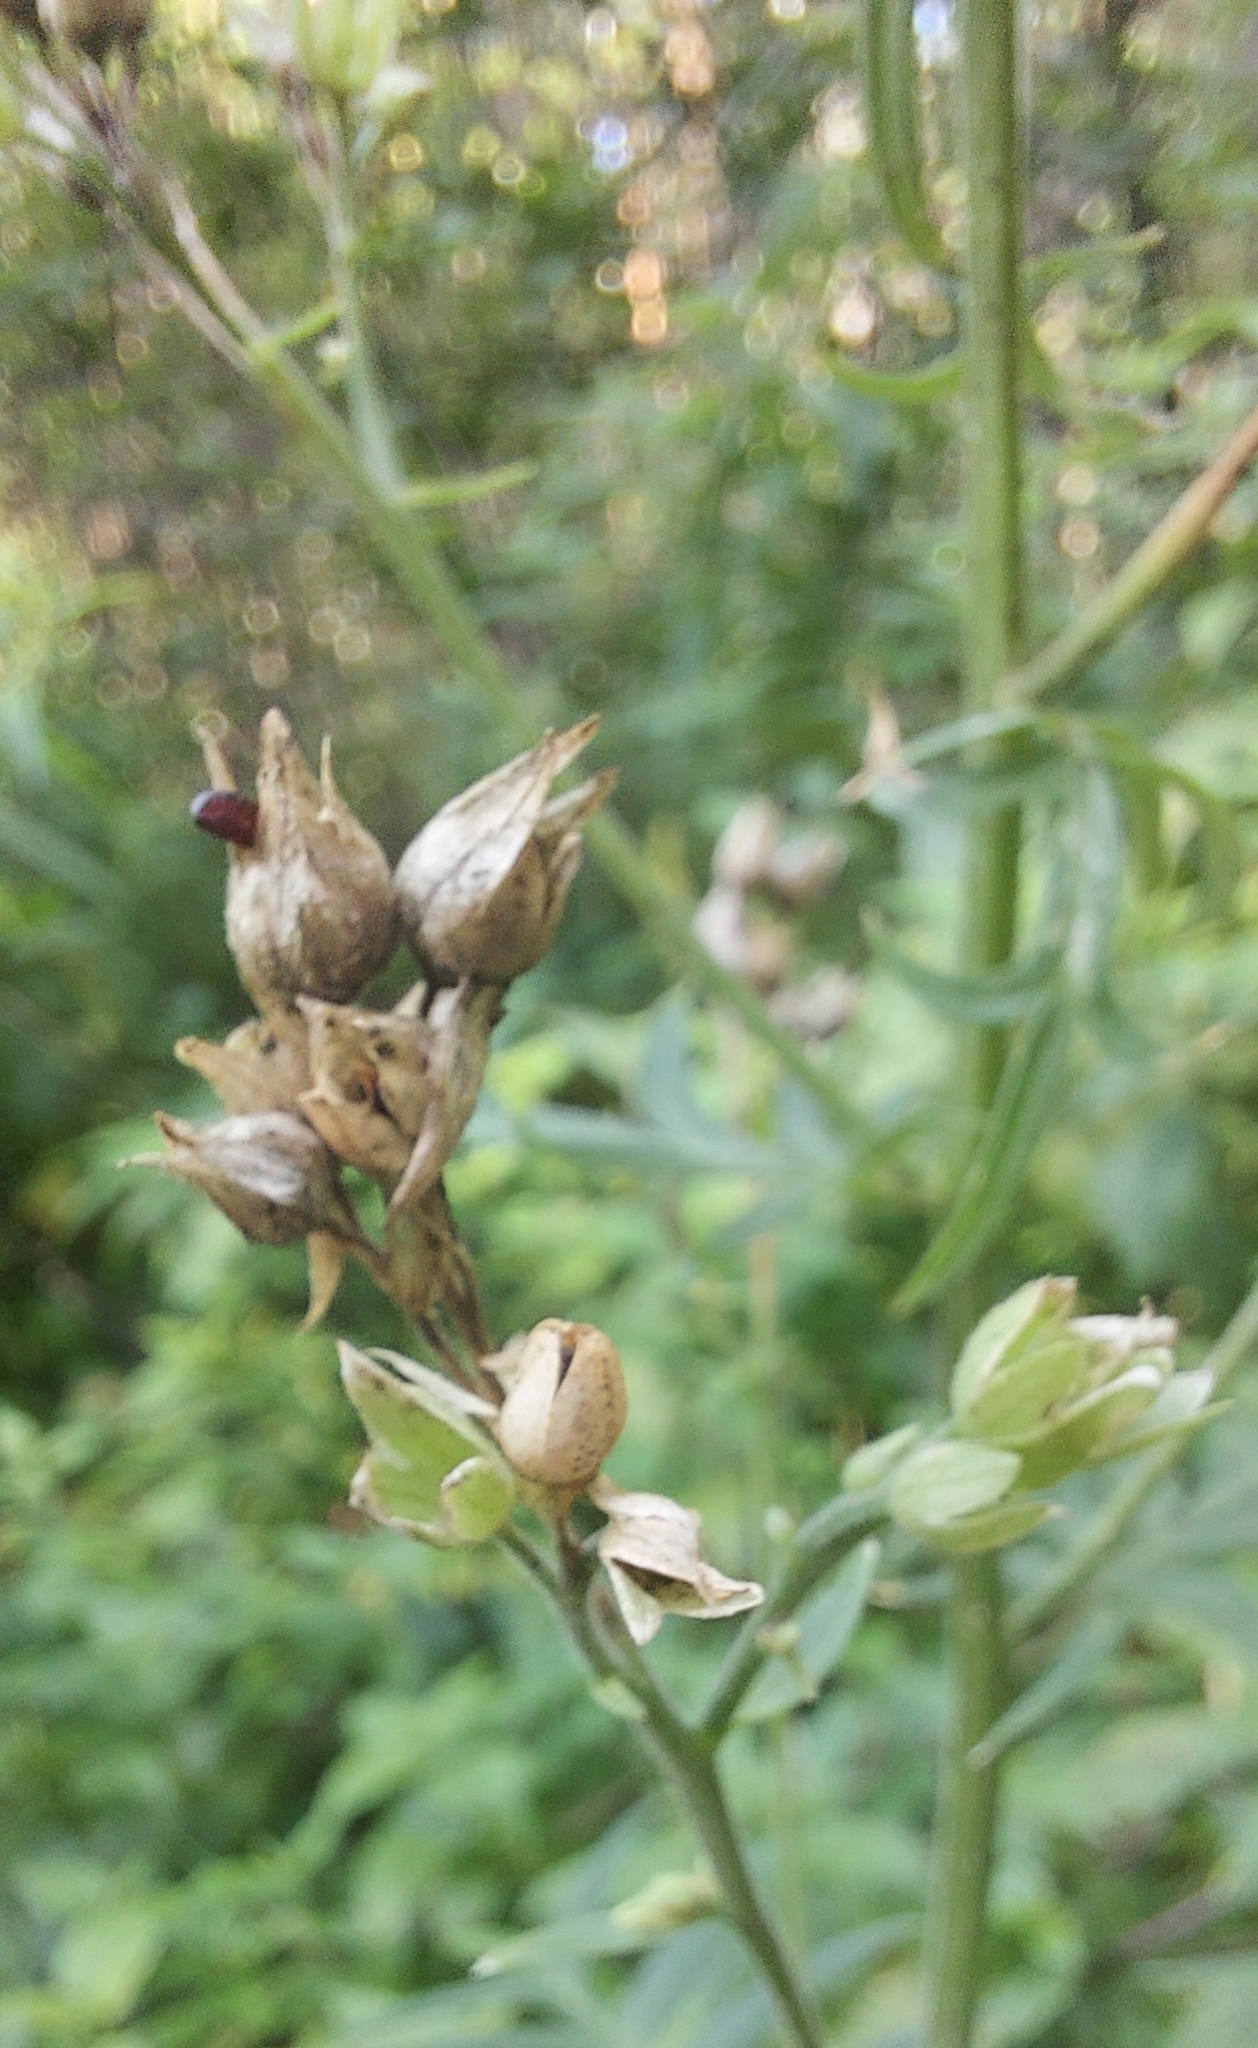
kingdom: Plantae
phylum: Tracheophyta
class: Magnoliopsida
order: Ericales
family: Polemoniaceae
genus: Polemonium
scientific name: Polemonium caeruleum
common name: Jacob's-ladder
